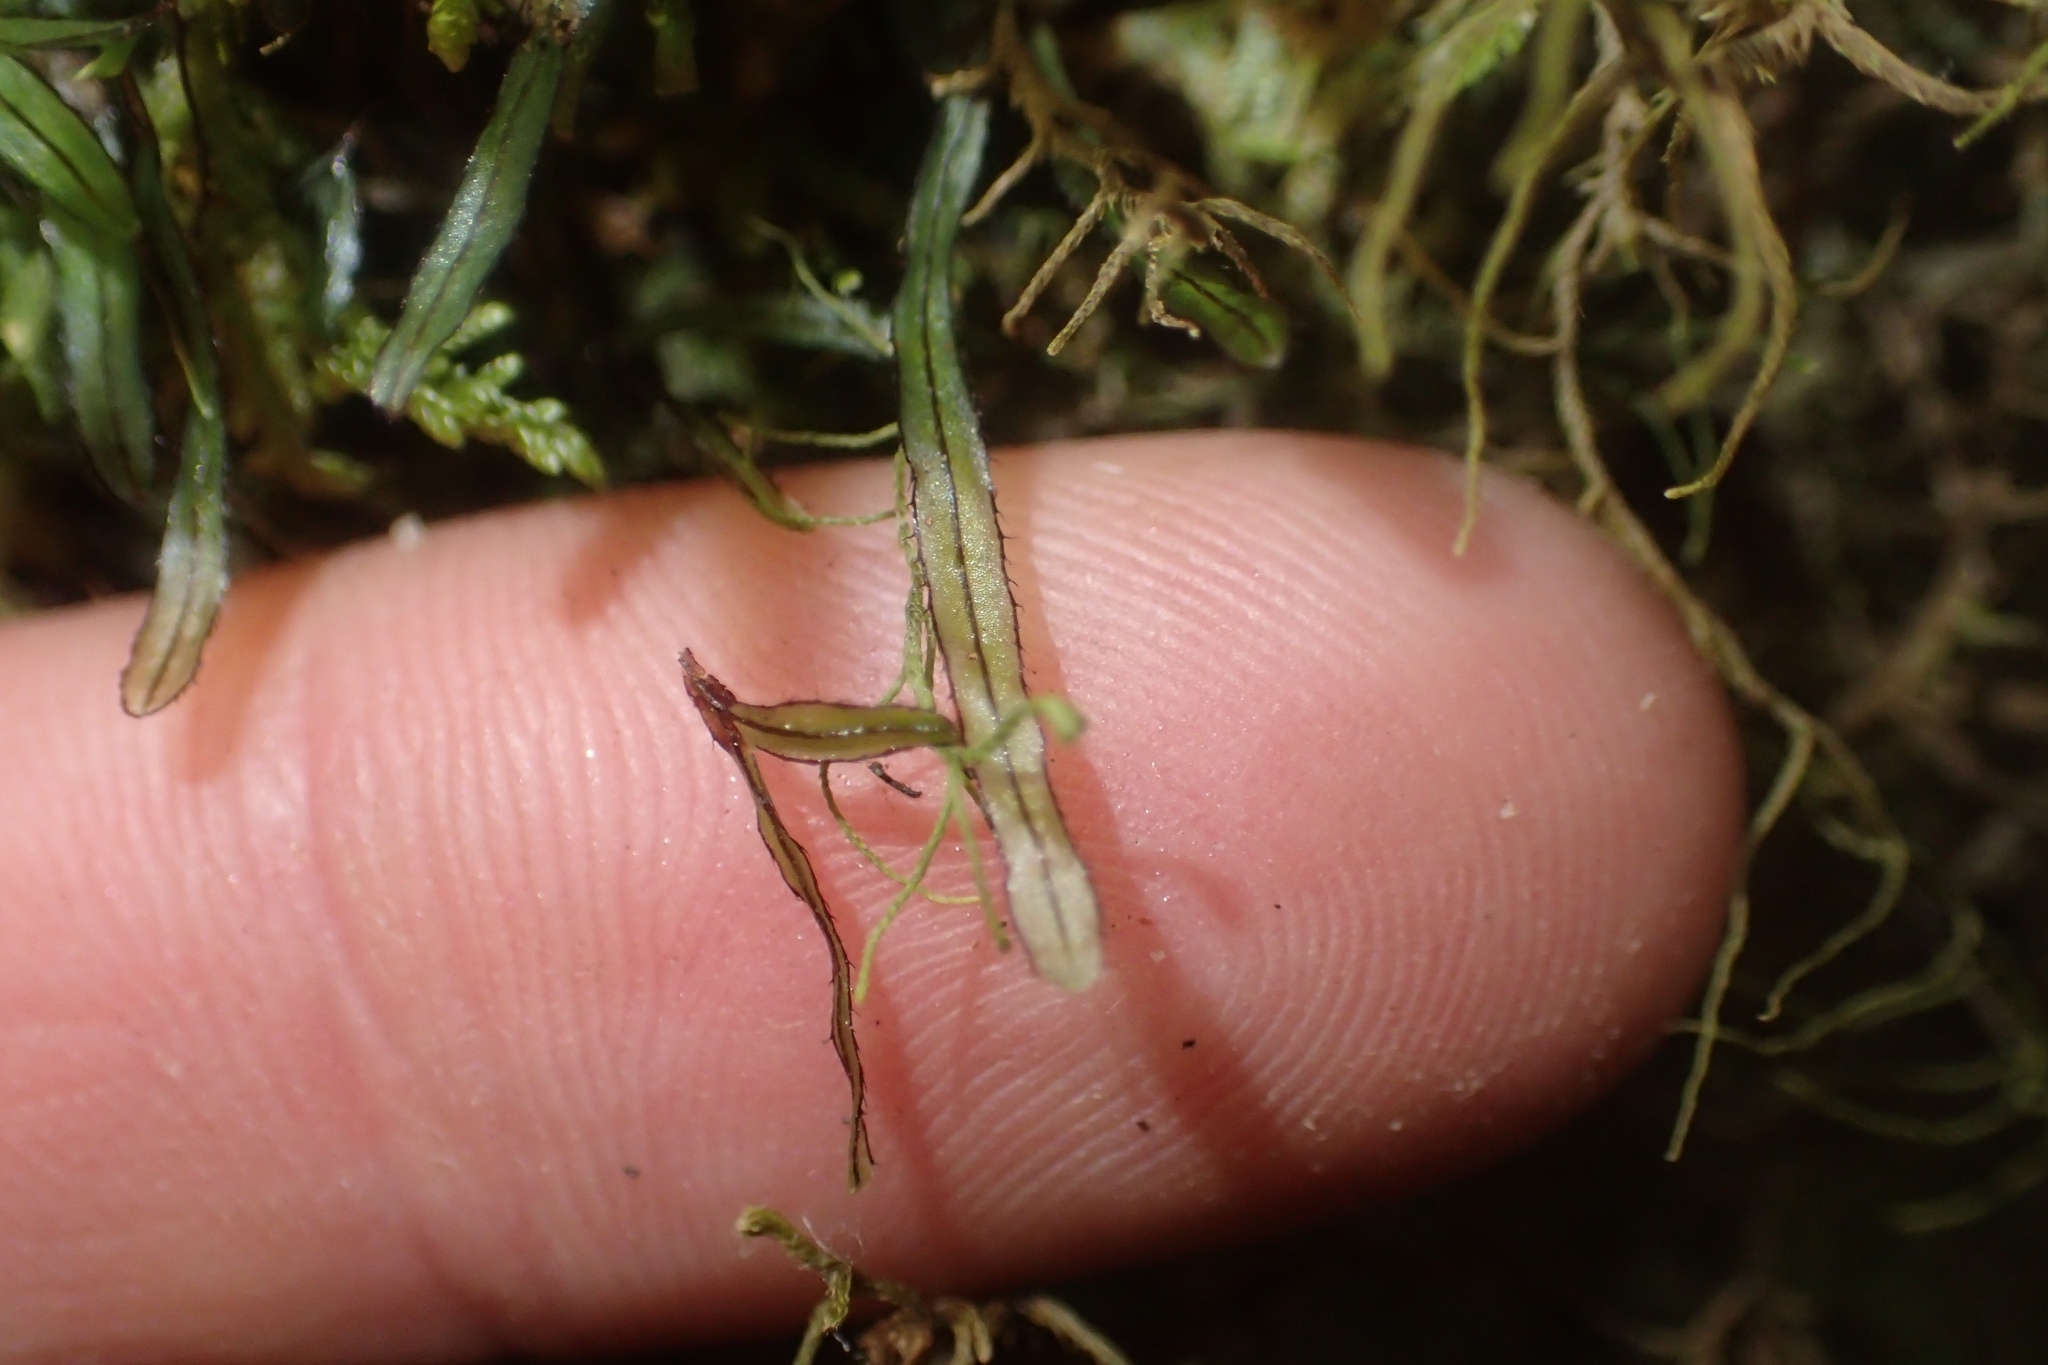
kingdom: Plantae
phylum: Tracheophyta
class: Polypodiopsida
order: Hymenophyllales
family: Hymenophyllaceae
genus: Hymenophyllum
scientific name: Hymenophyllum armstrongii
